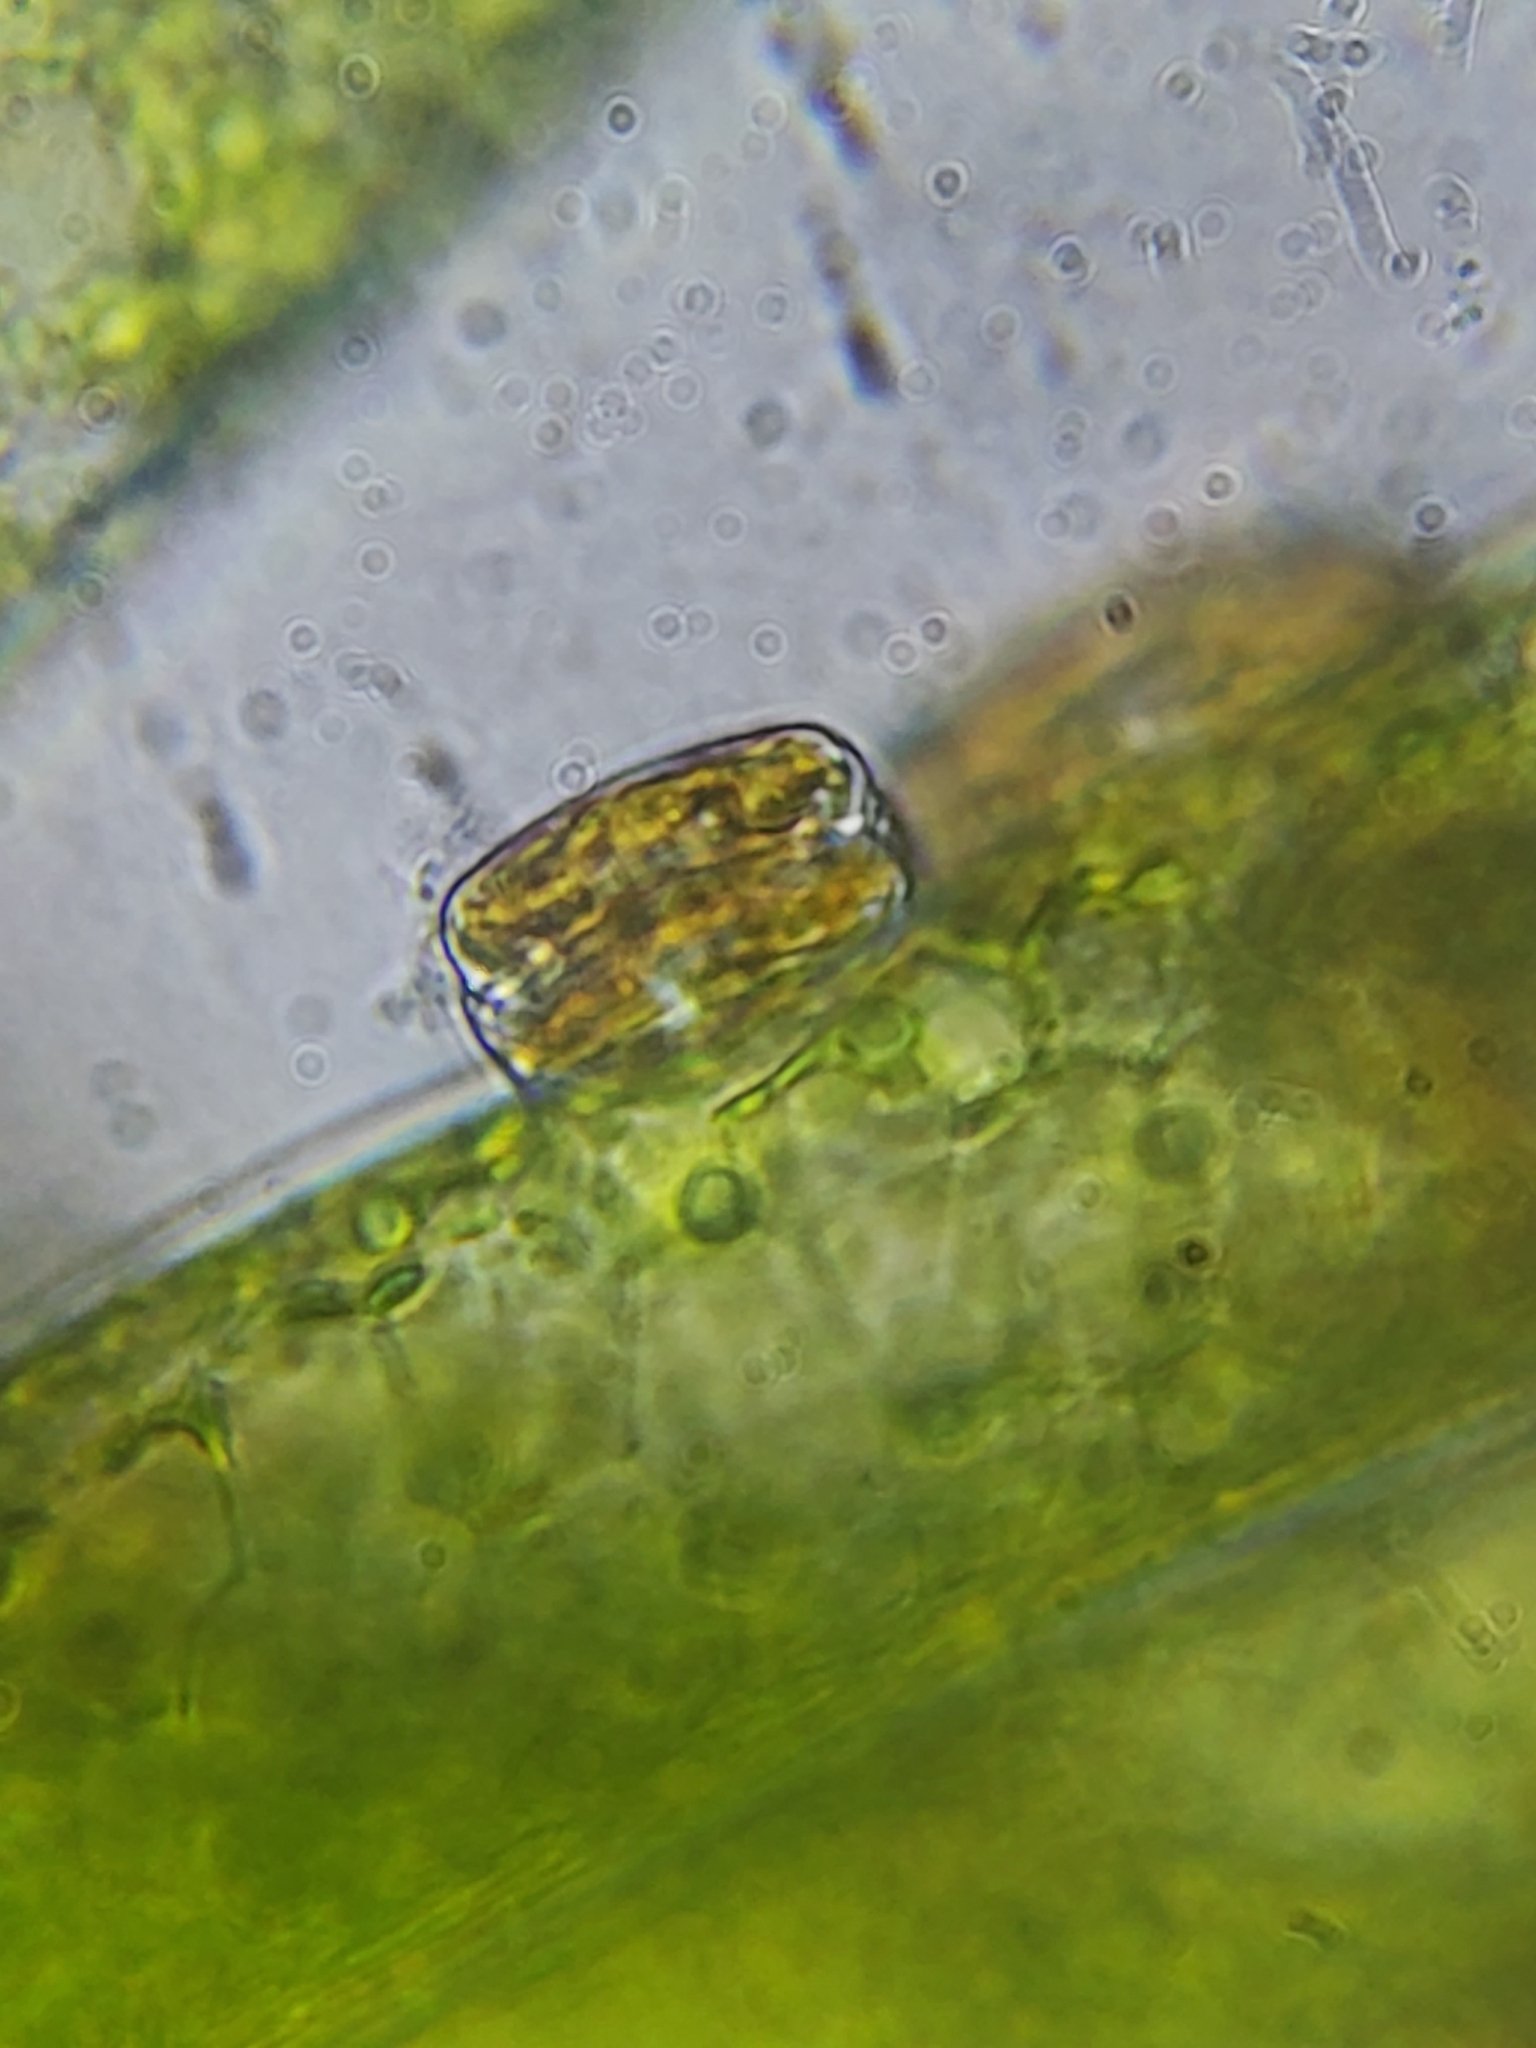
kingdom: Chromista
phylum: Ochrophyta
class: Bacillariophyceae
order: Achnanthales
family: Cocconeidaceae
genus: Cocconeis
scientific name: Cocconeis pediculus
